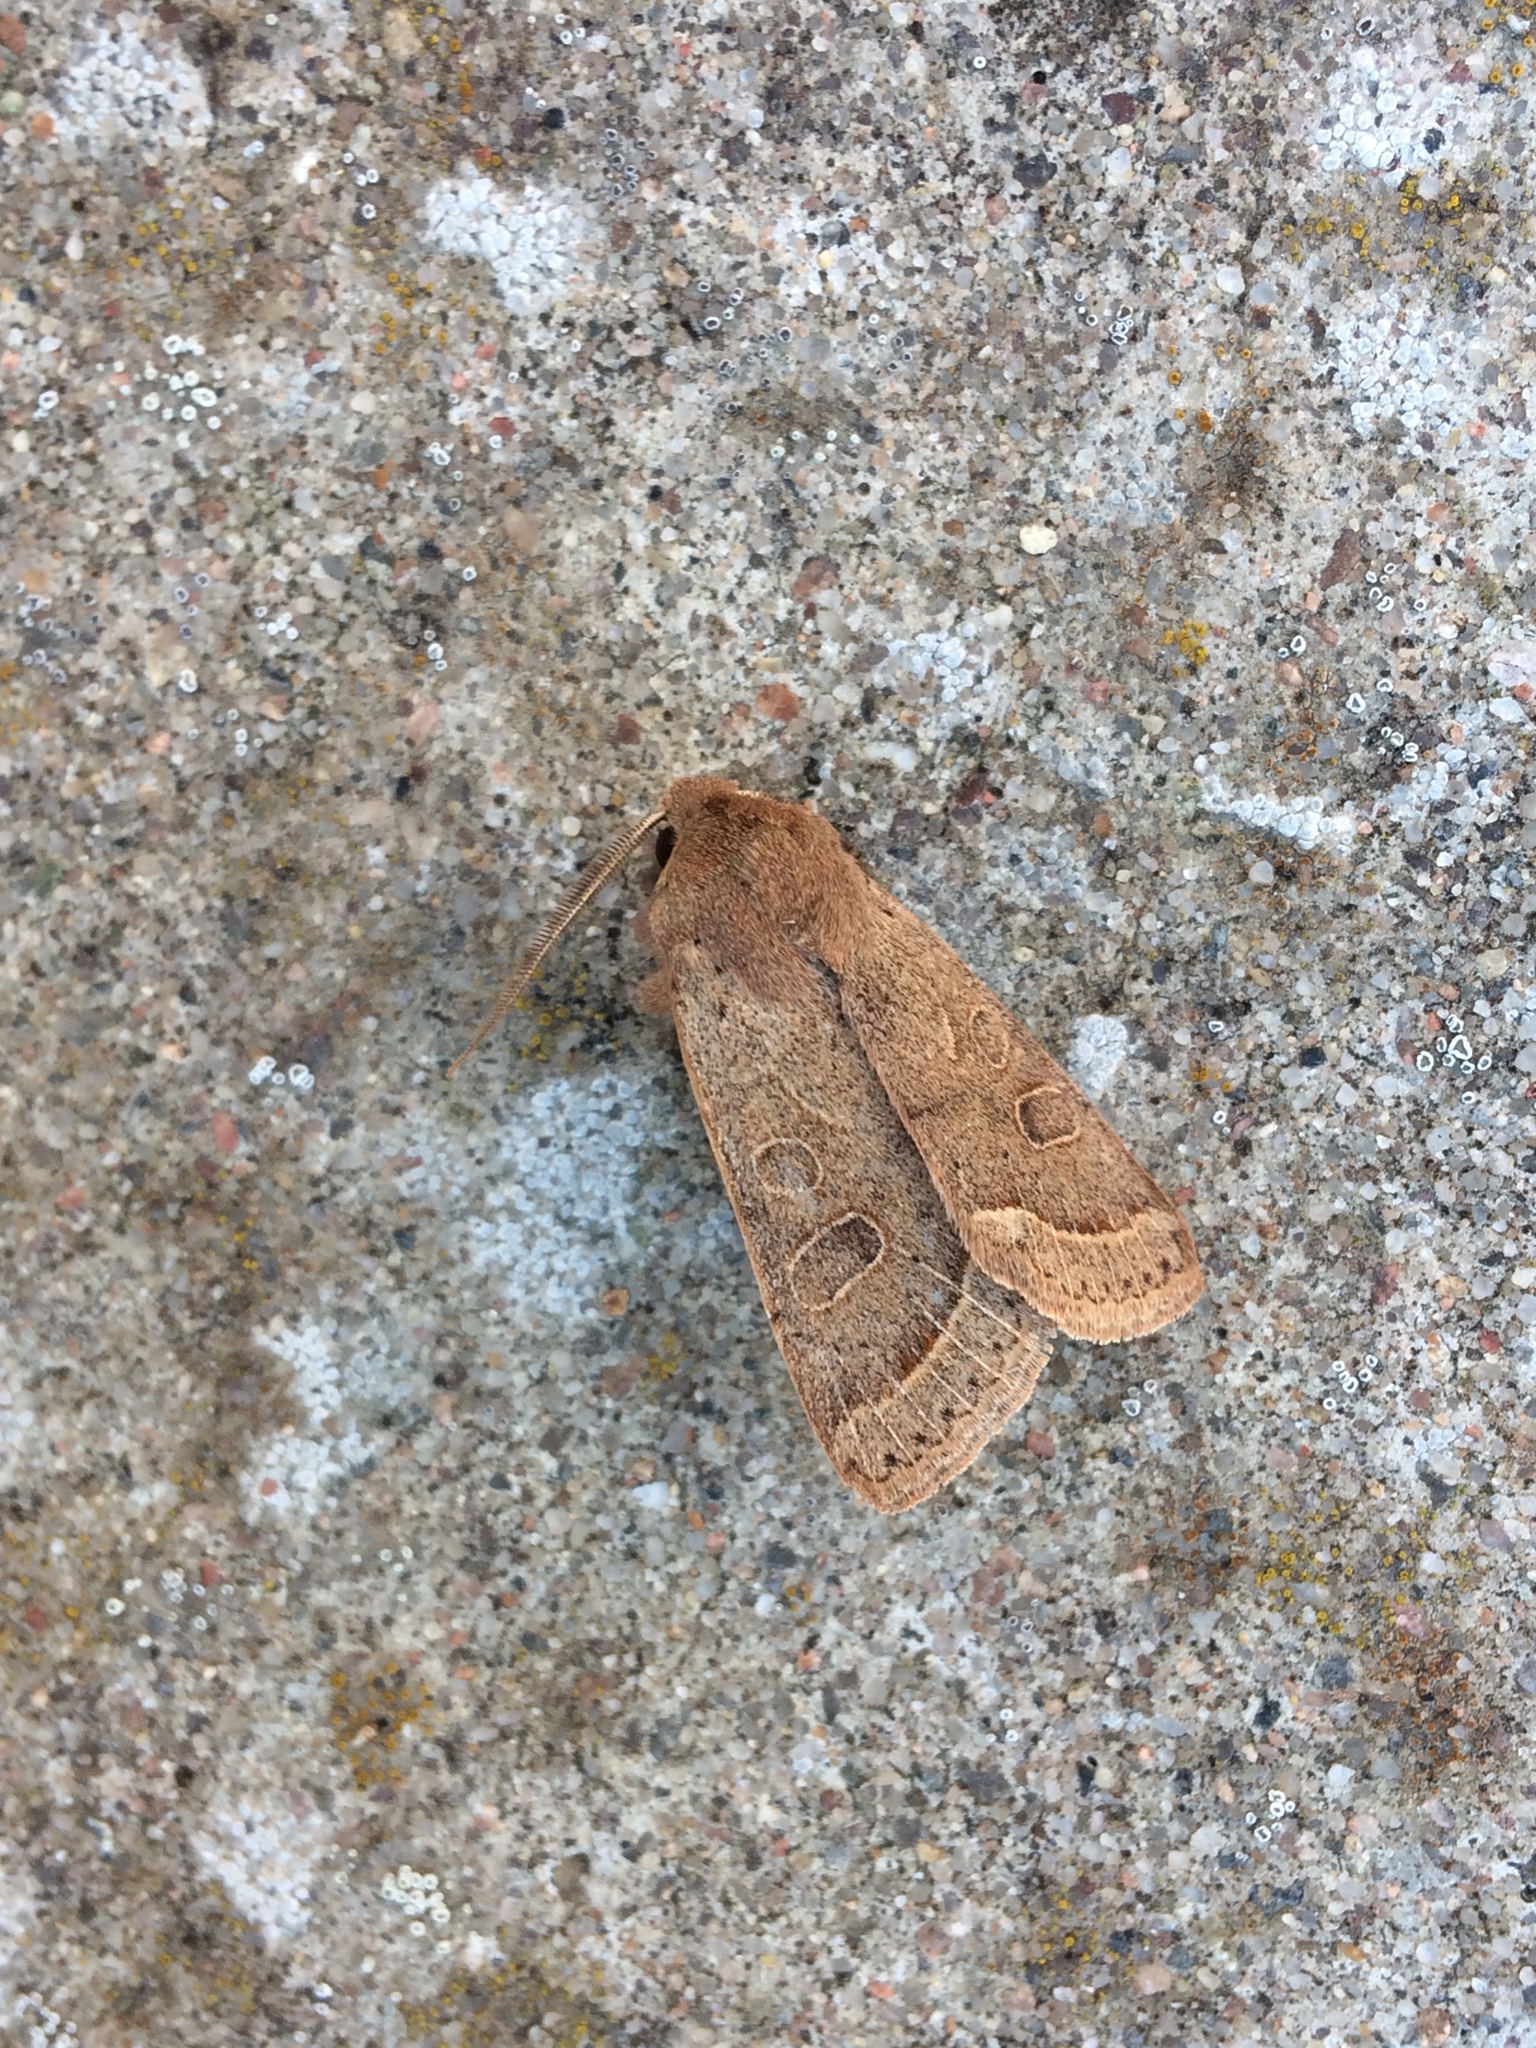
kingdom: Animalia
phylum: Arthropoda
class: Insecta
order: Lepidoptera
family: Noctuidae
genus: Orthosia
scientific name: Orthosia cerasi
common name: Common quaker
